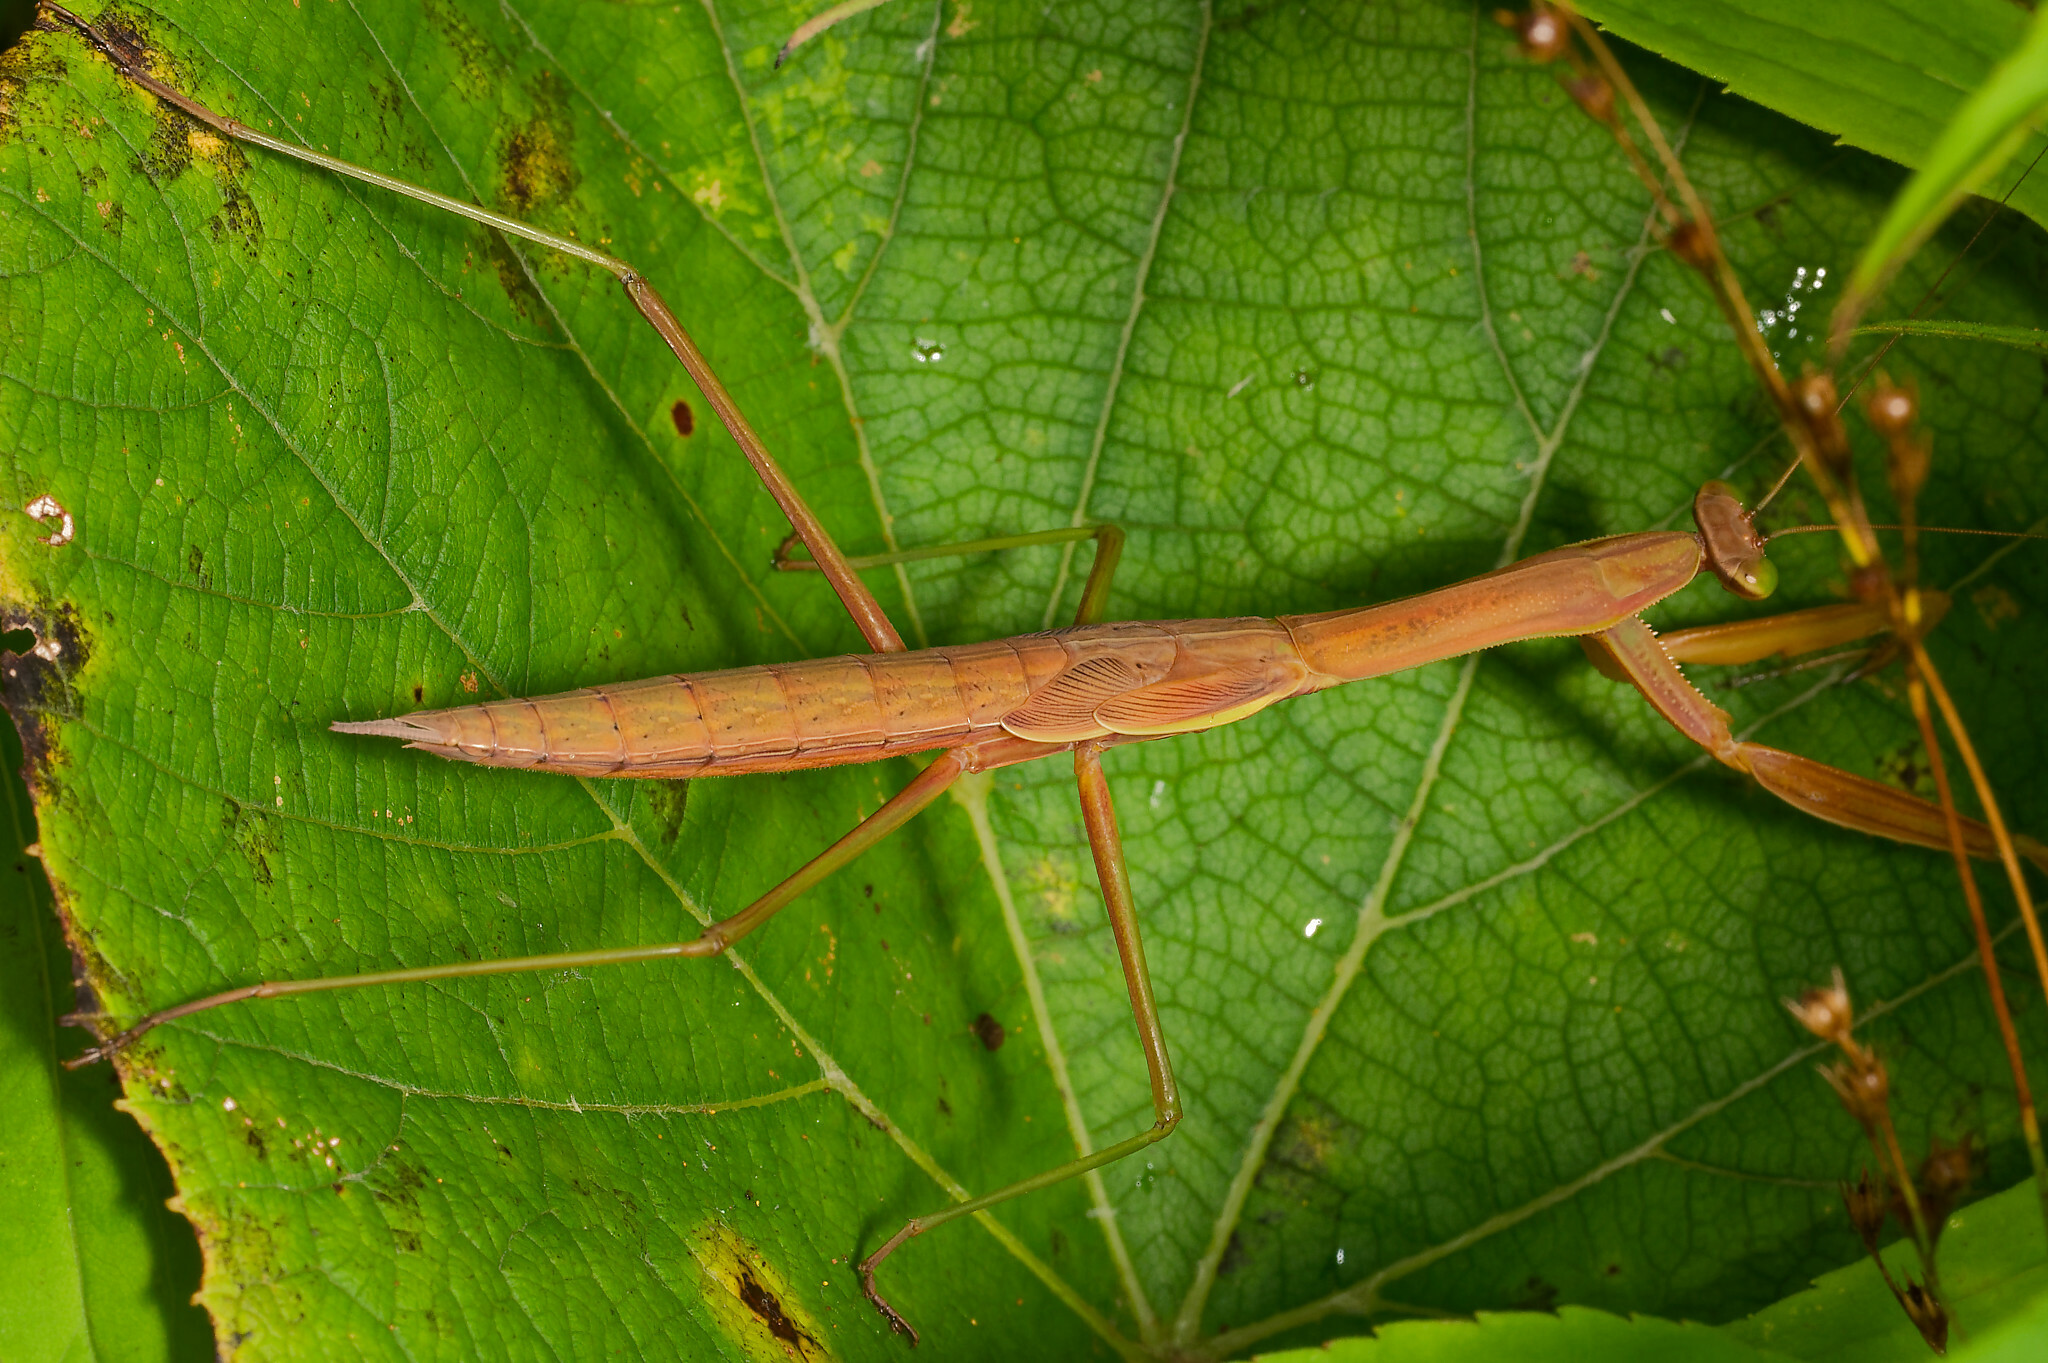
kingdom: Animalia
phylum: Arthropoda
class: Insecta
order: Mantodea
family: Mantidae
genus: Tenodera
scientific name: Tenodera sinensis
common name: Chinese mantis
